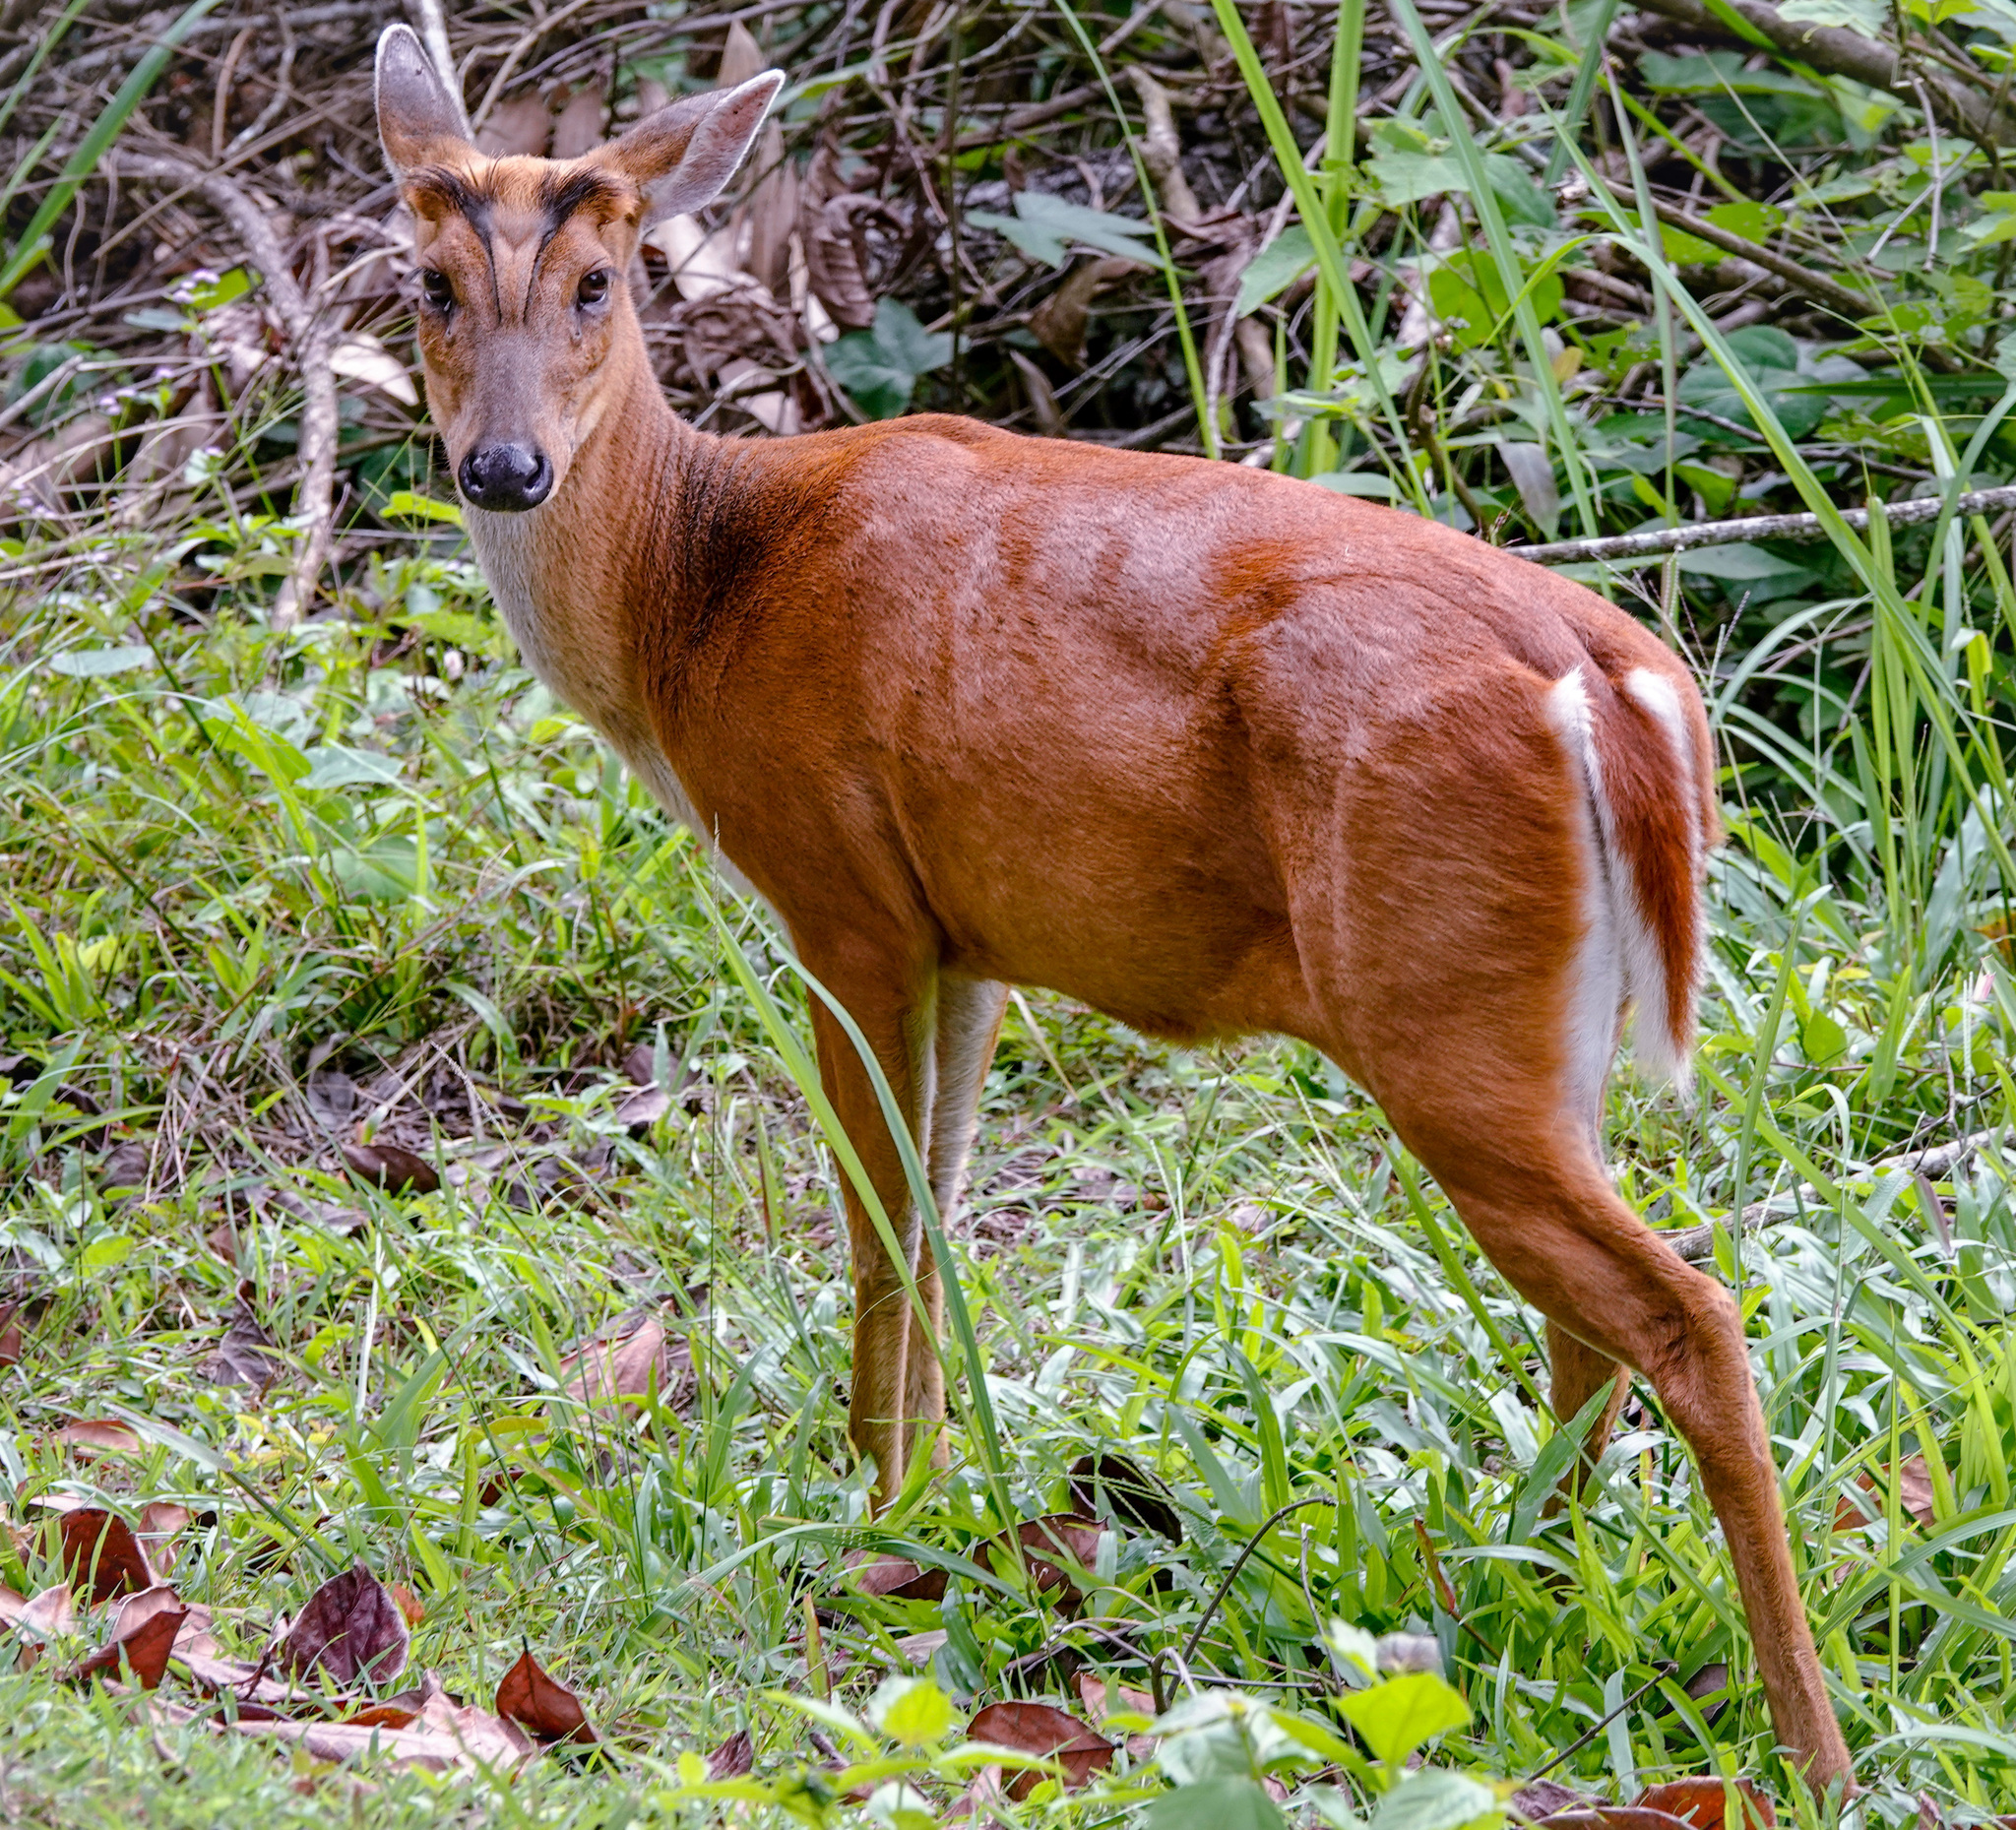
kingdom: Animalia
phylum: Chordata
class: Mammalia
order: Artiodactyla
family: Cervidae
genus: Muntiacus
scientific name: Muntiacus muntjak
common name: Indian muntjac
